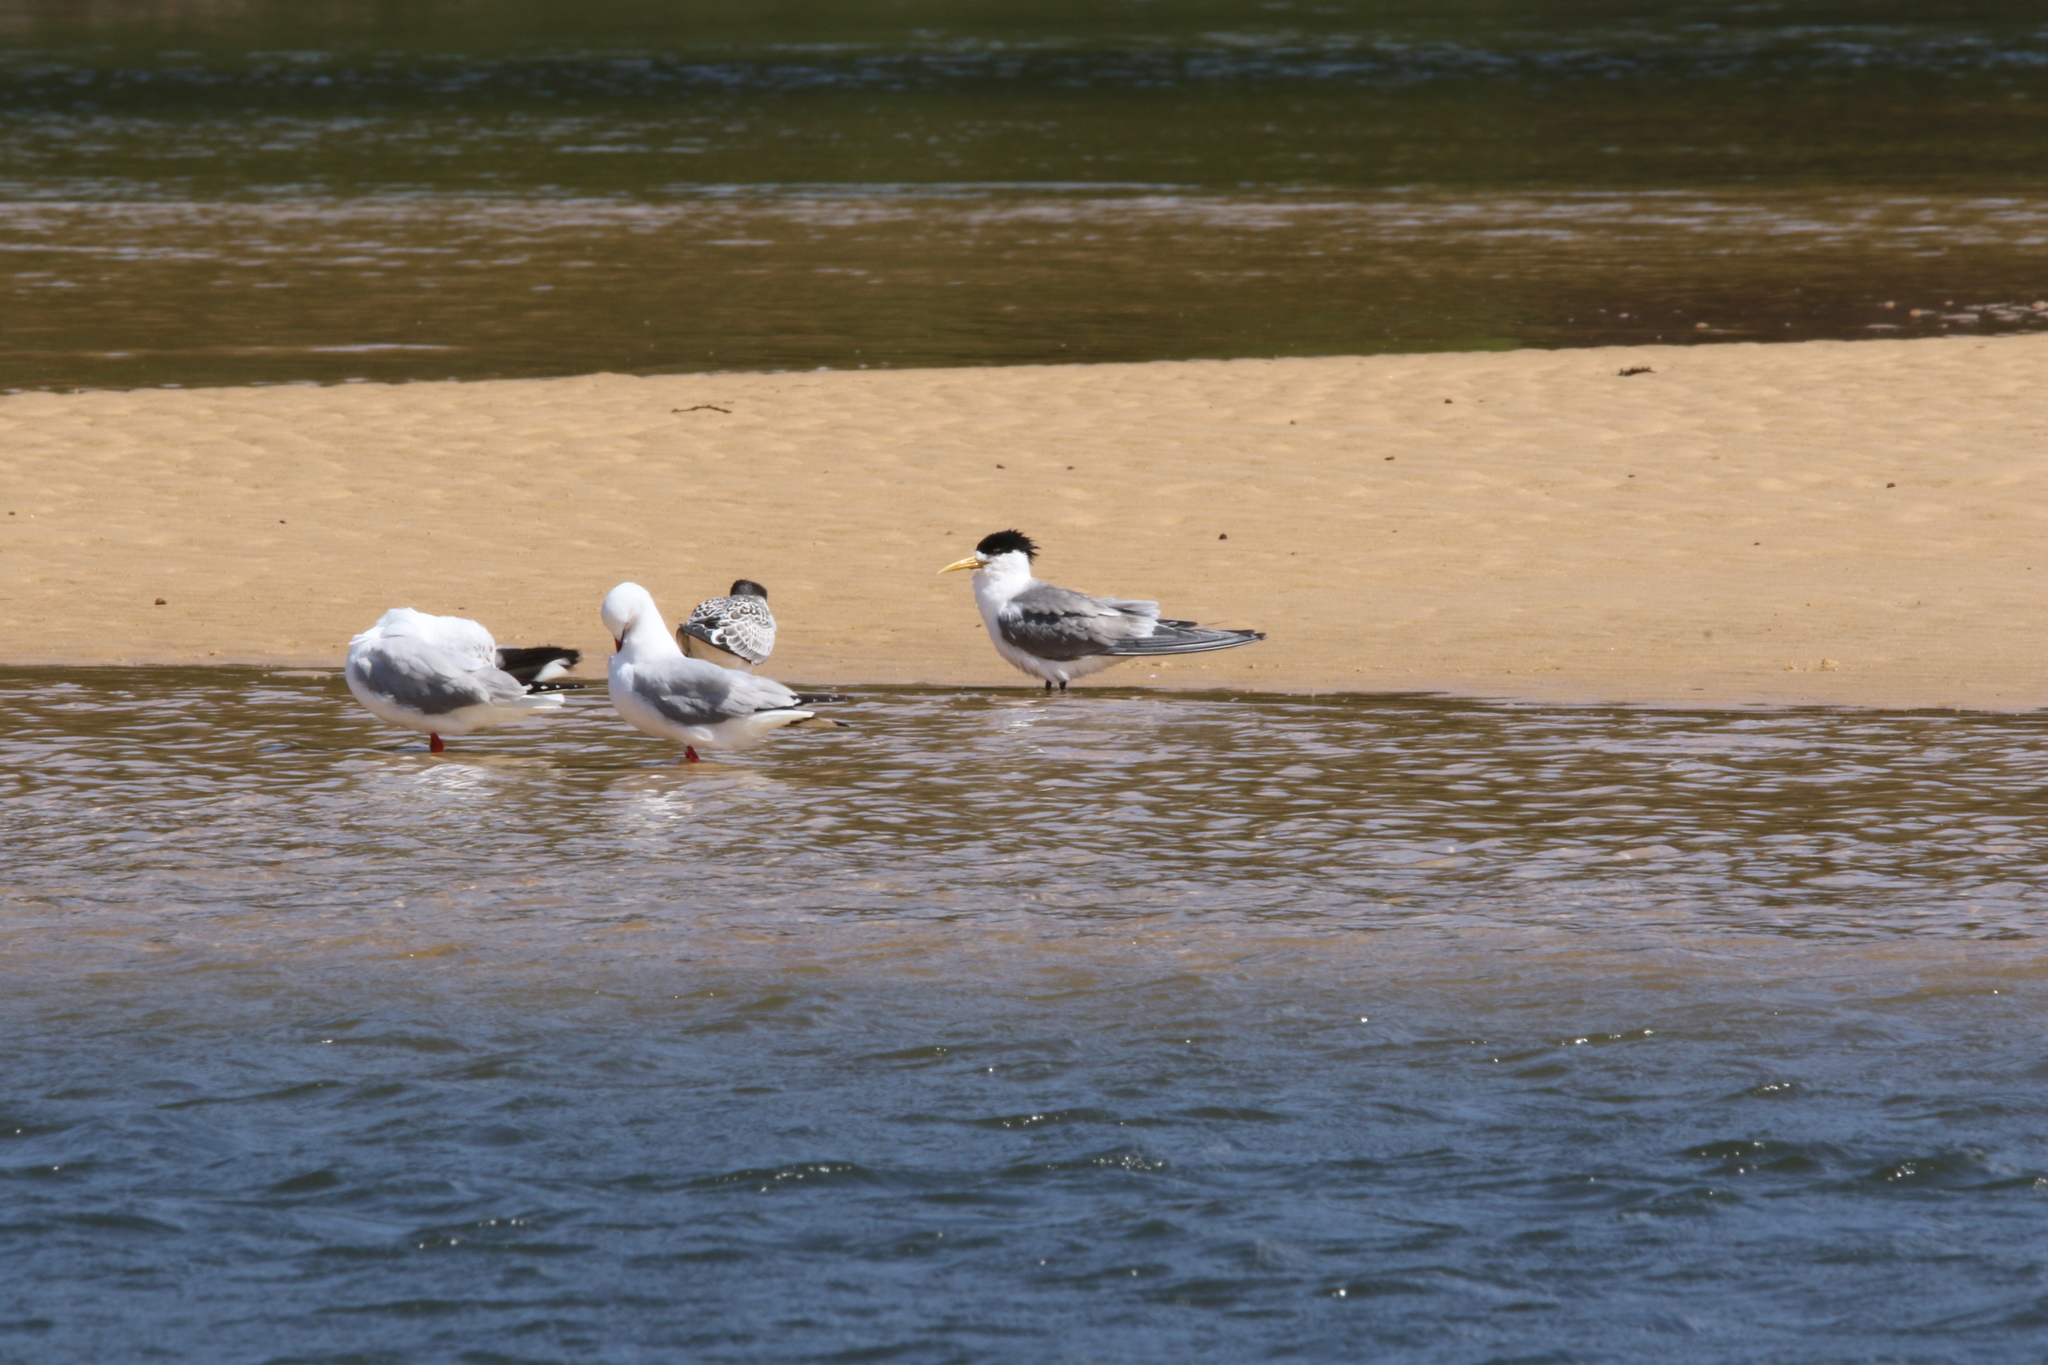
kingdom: Animalia
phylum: Chordata
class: Aves
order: Charadriiformes
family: Laridae
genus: Thalasseus
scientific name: Thalasseus bergii
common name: Greater crested tern
